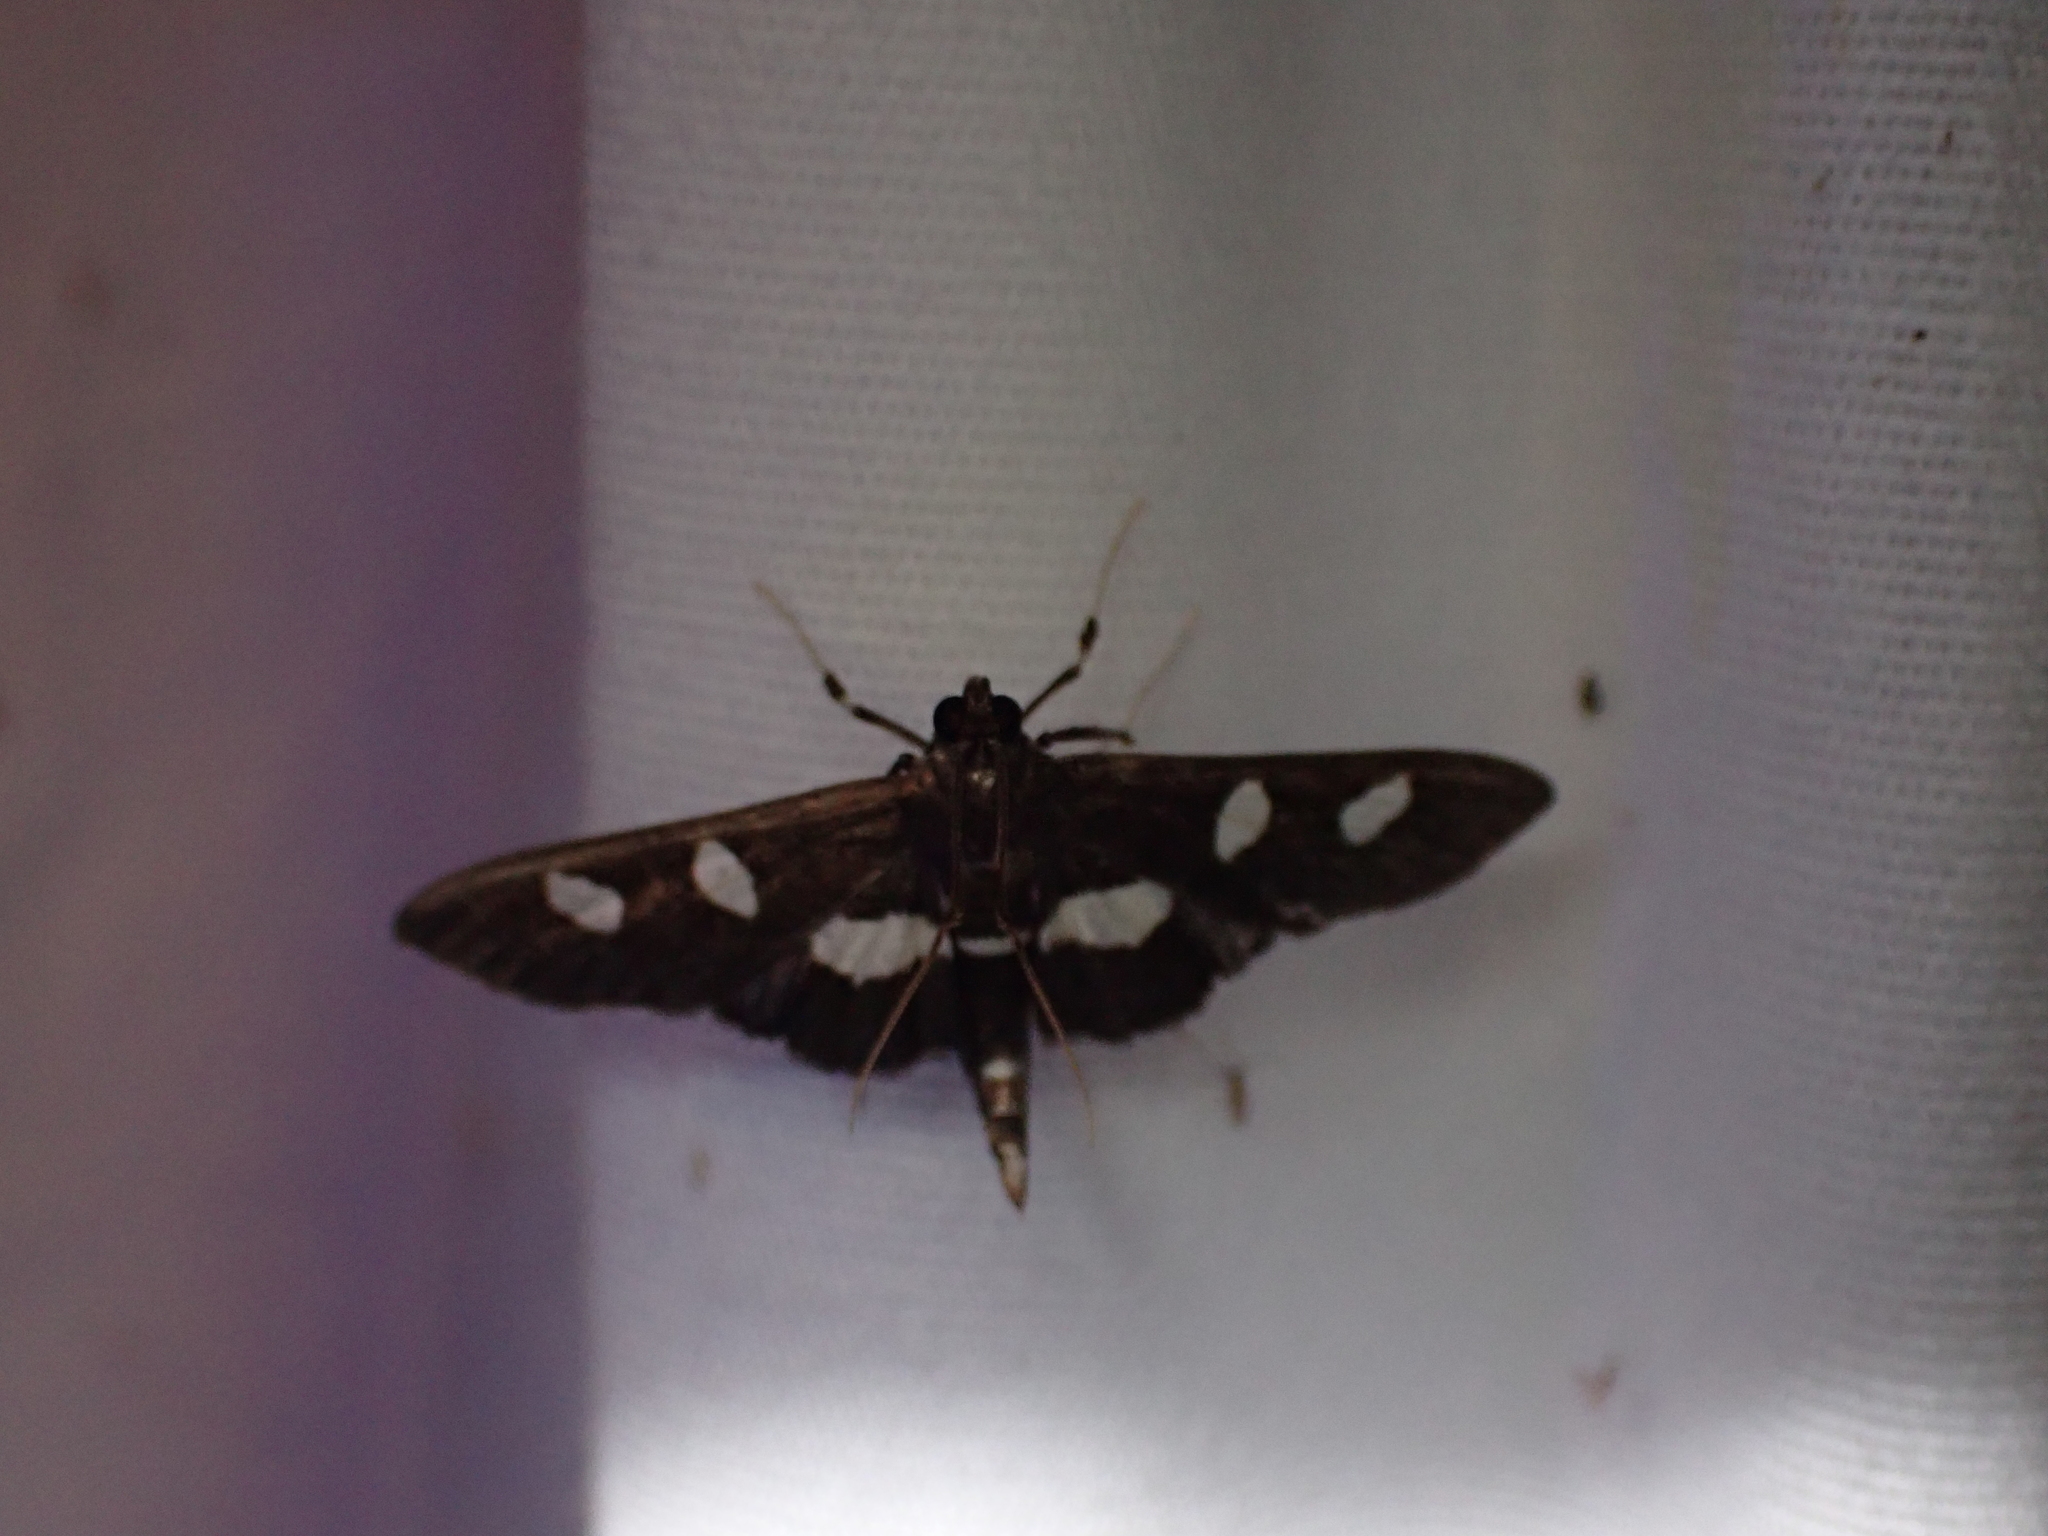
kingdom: Animalia
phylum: Arthropoda
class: Insecta
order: Lepidoptera
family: Crambidae
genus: Desmia
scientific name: Desmia
